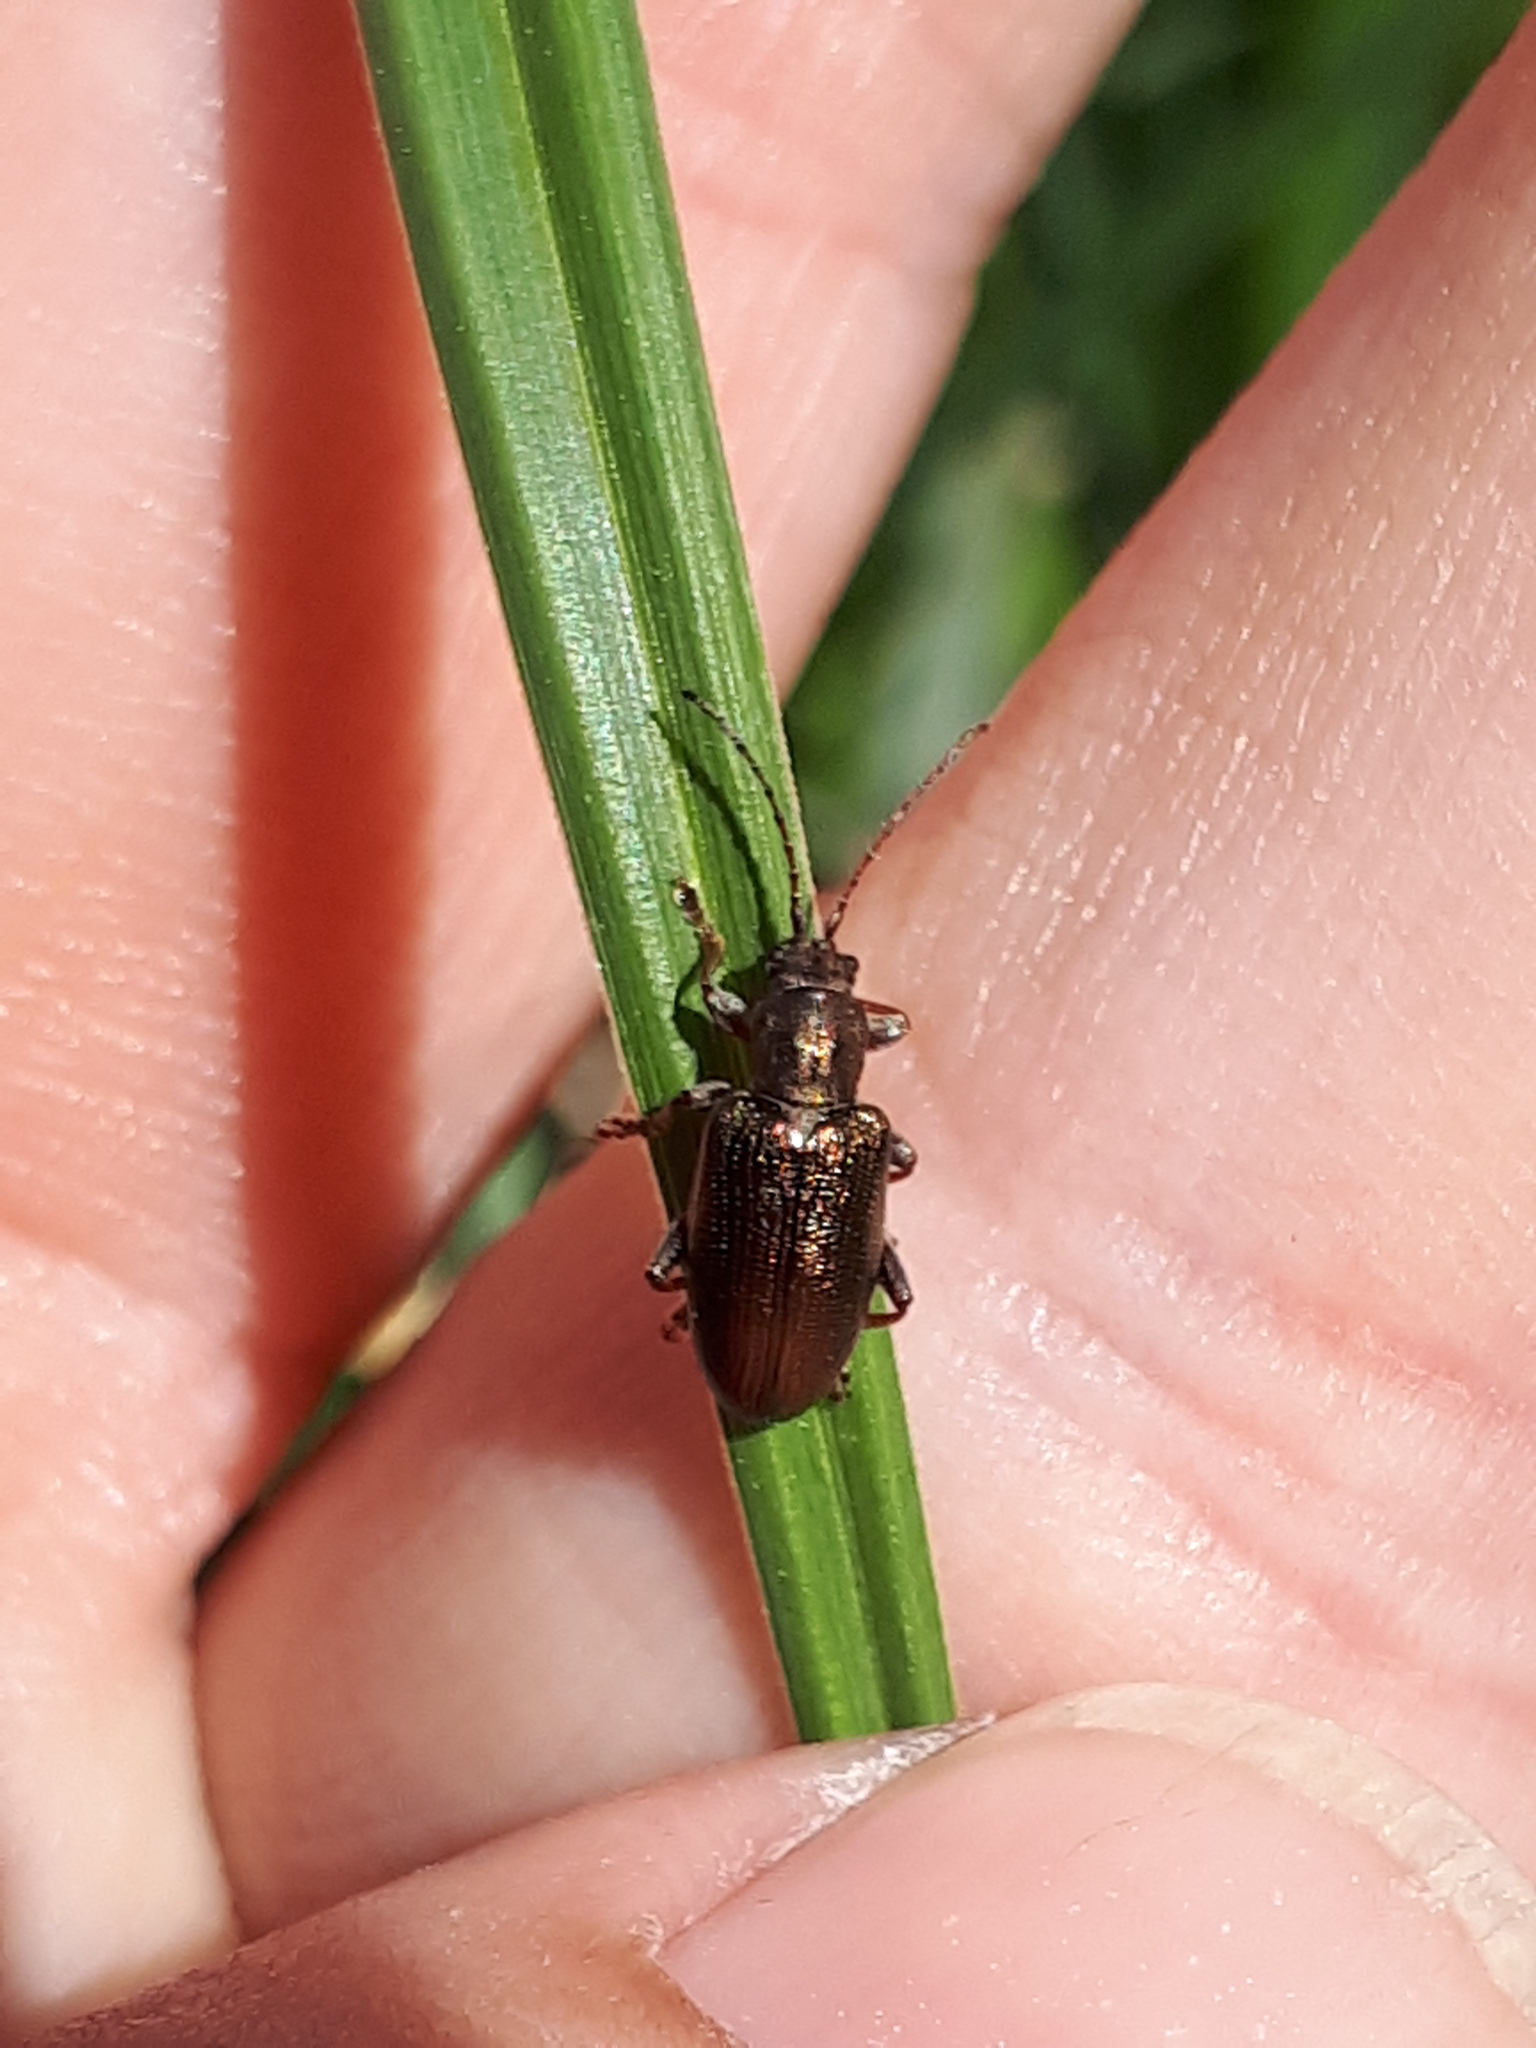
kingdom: Animalia
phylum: Arthropoda
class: Insecta
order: Coleoptera
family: Chrysomelidae
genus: Plateumaris
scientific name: Plateumaris consimilis
